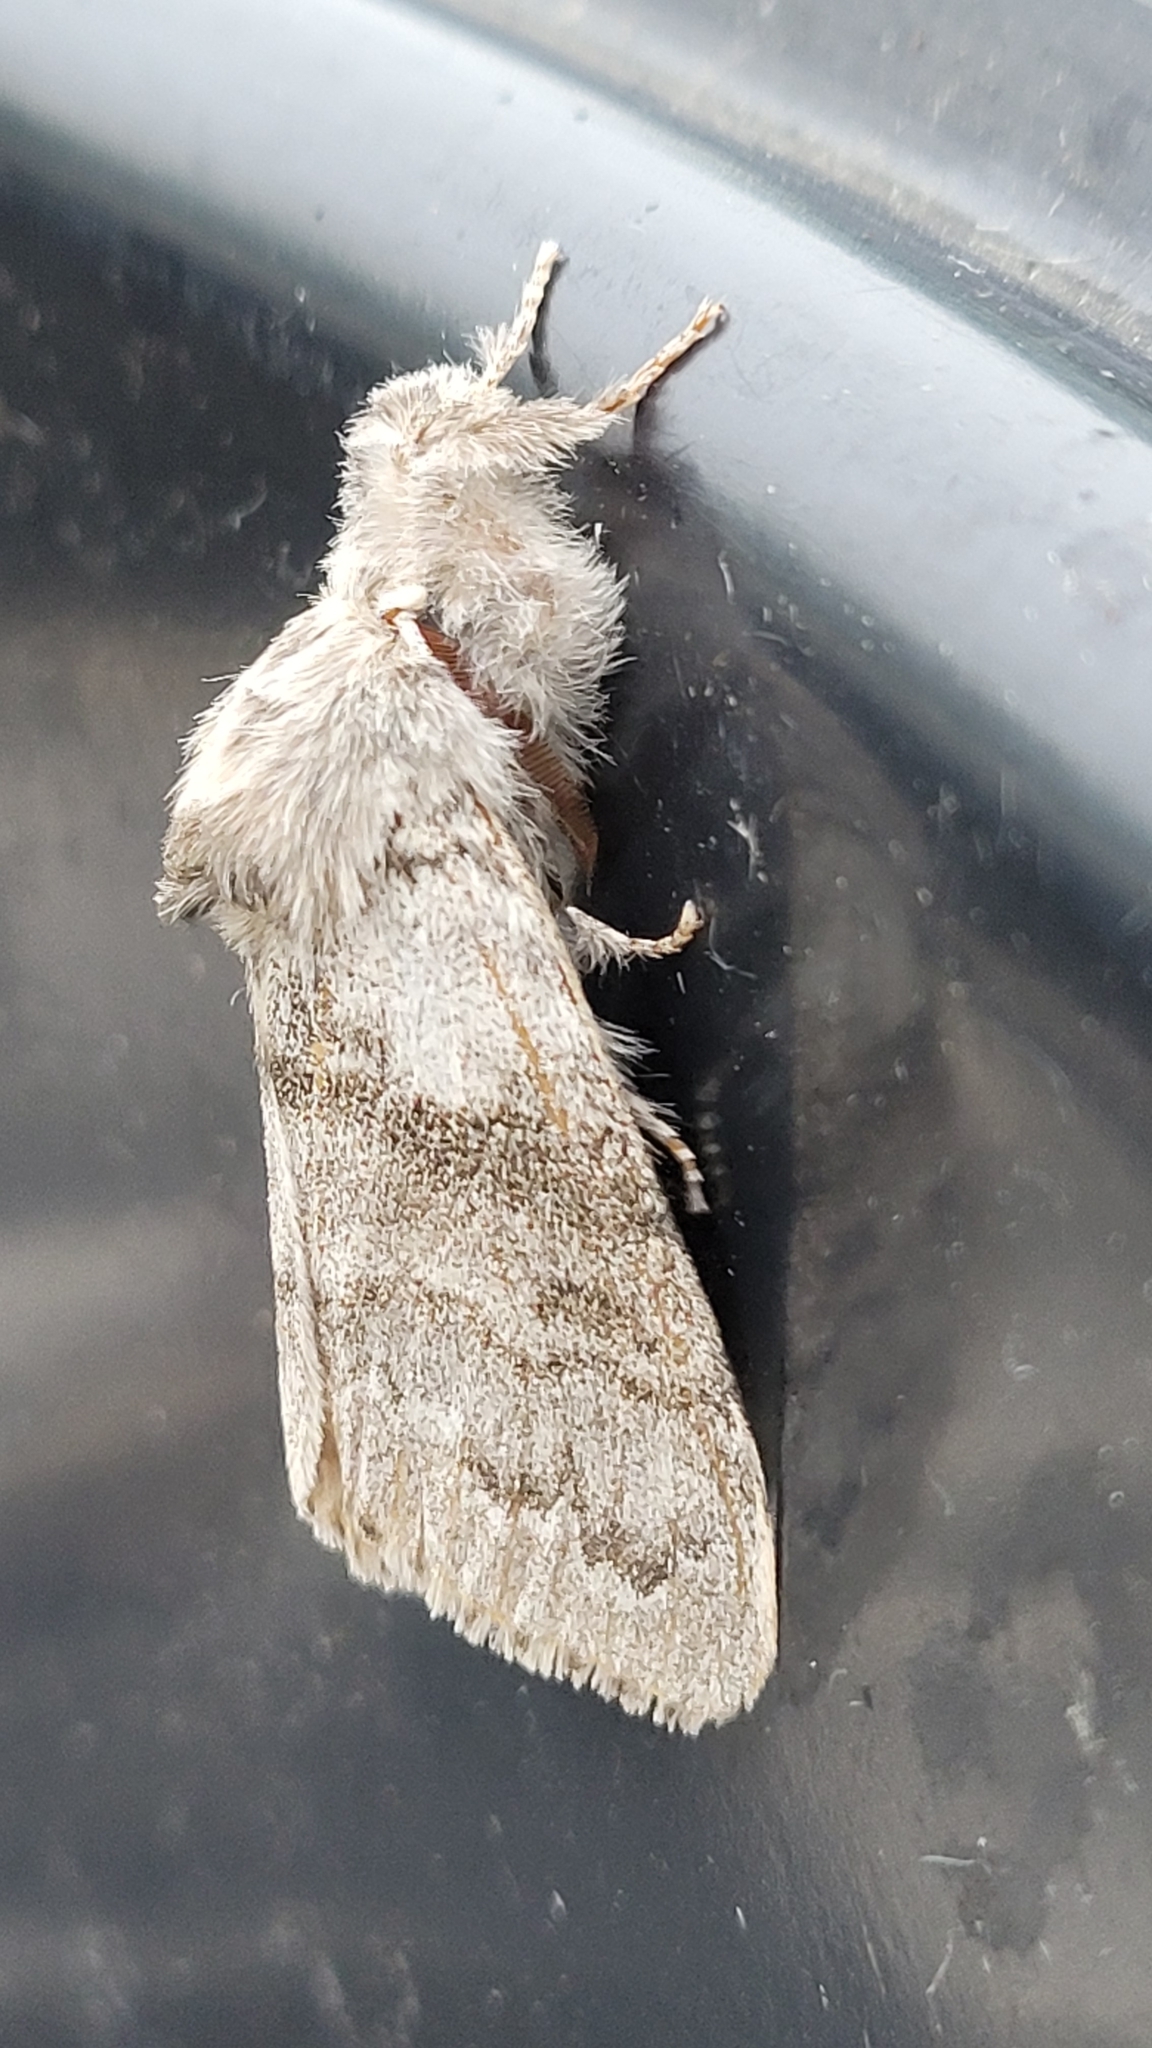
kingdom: Animalia
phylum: Arthropoda
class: Insecta
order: Lepidoptera
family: Erebidae
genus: Calliteara
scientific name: Calliteara pudibunda
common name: Pale tussock
